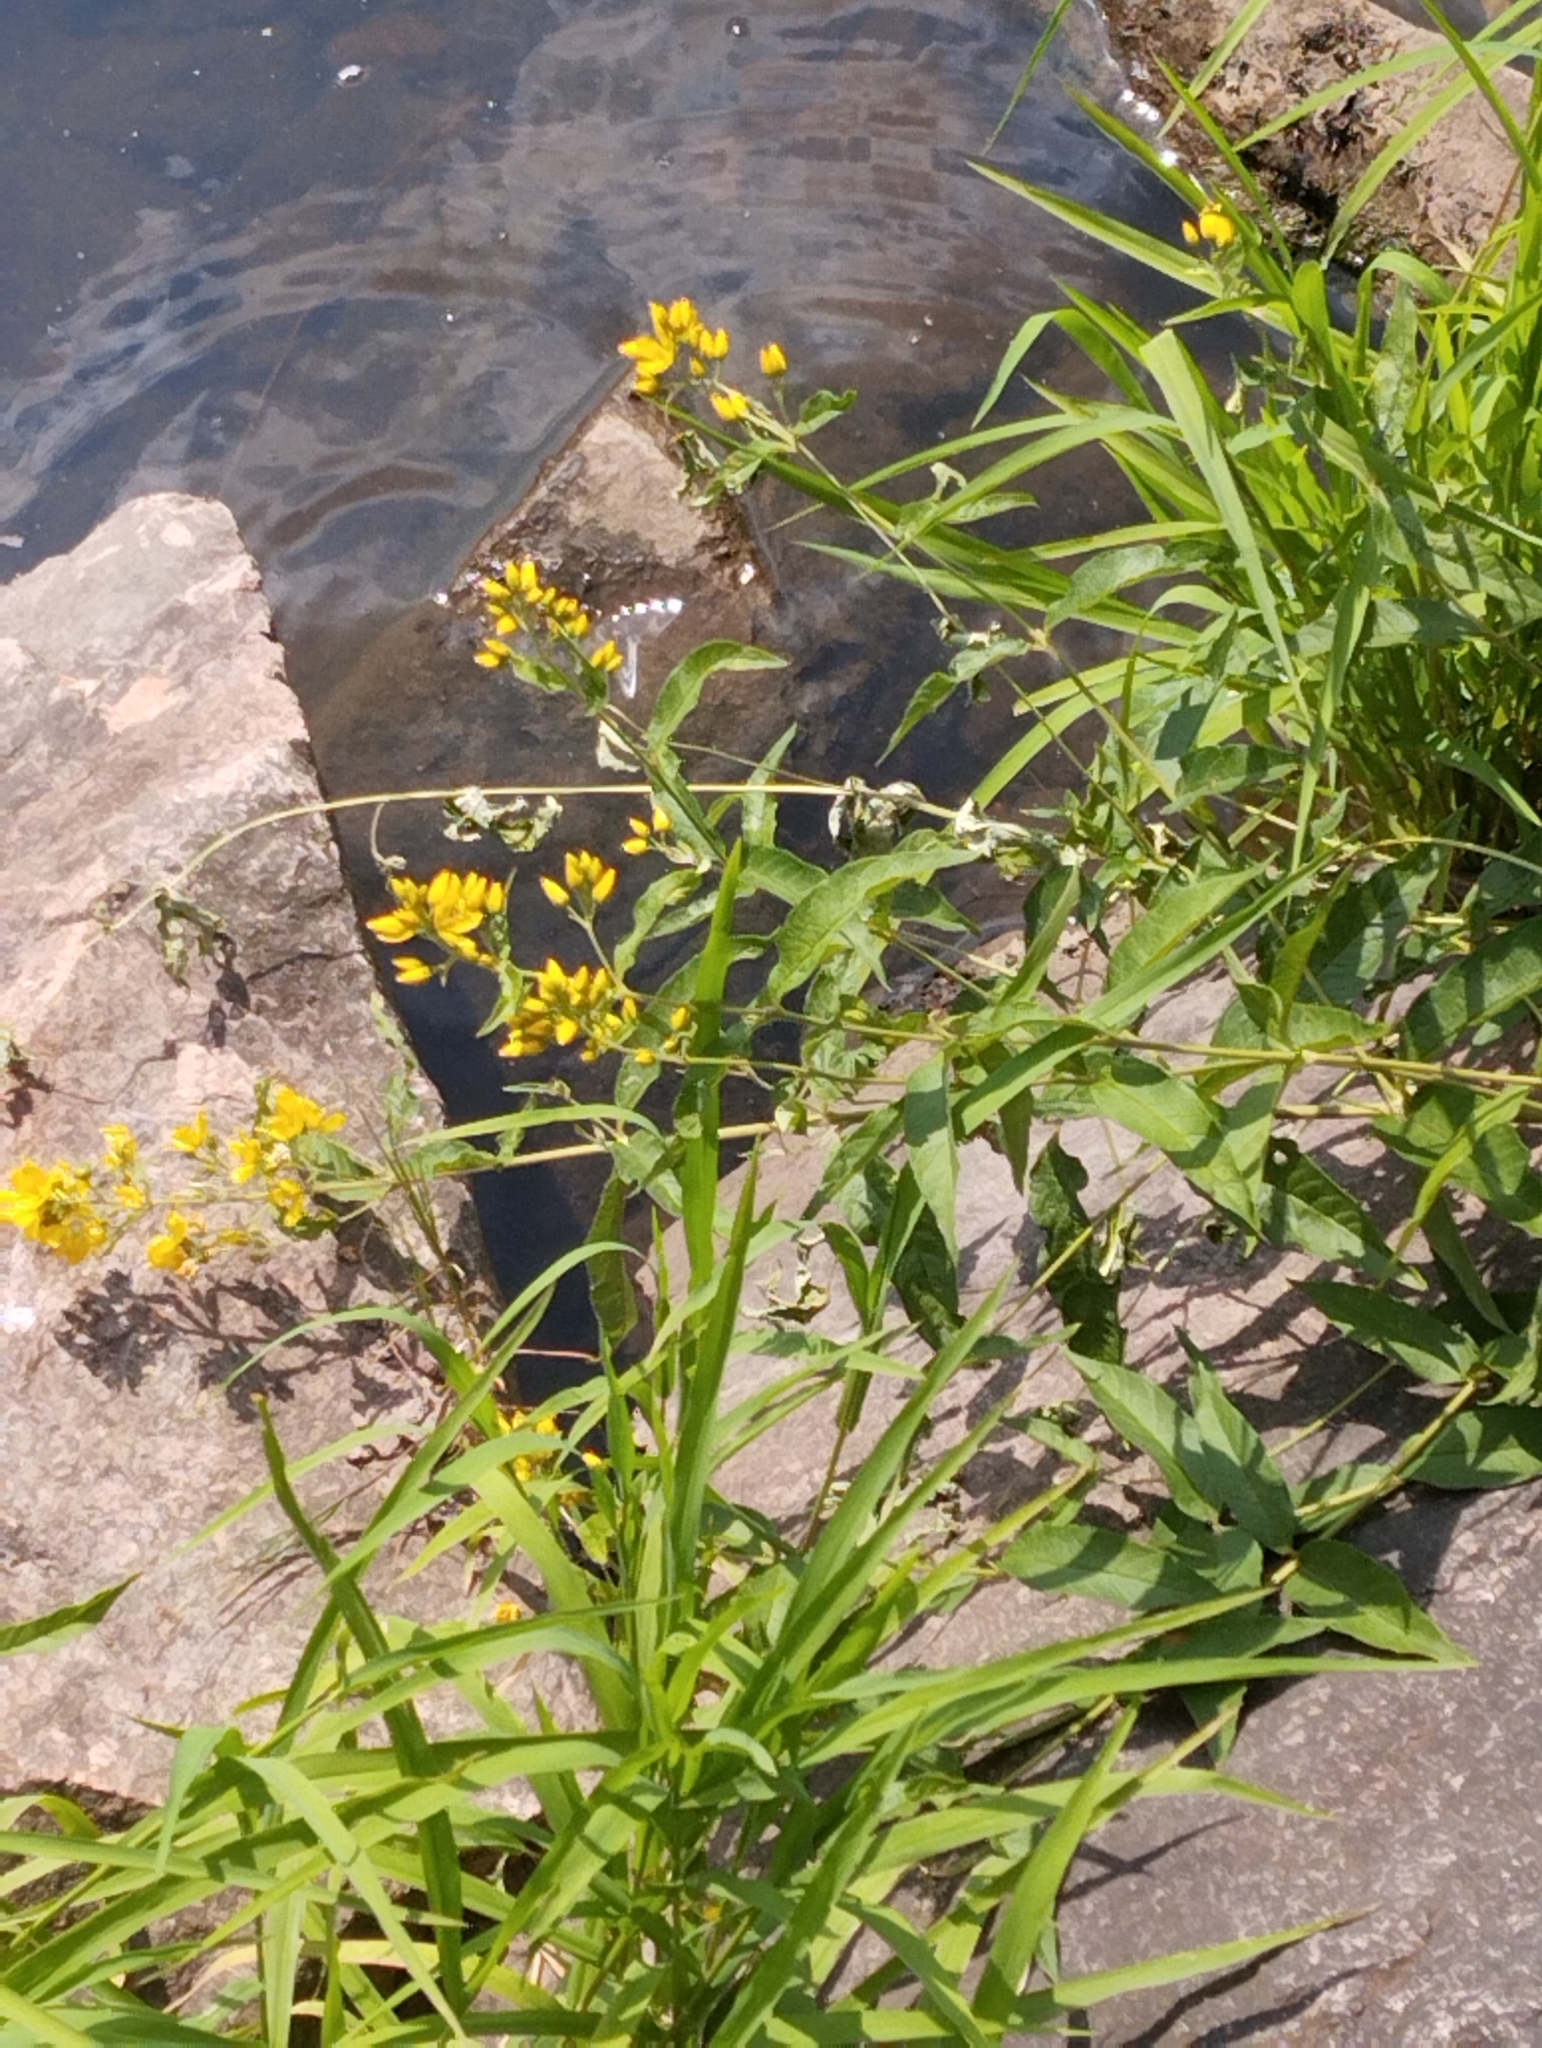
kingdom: Plantae
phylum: Tracheophyta
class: Magnoliopsida
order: Ericales
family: Primulaceae
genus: Lysimachia
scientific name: Lysimachia vulgaris
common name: Yellow loosestrife
